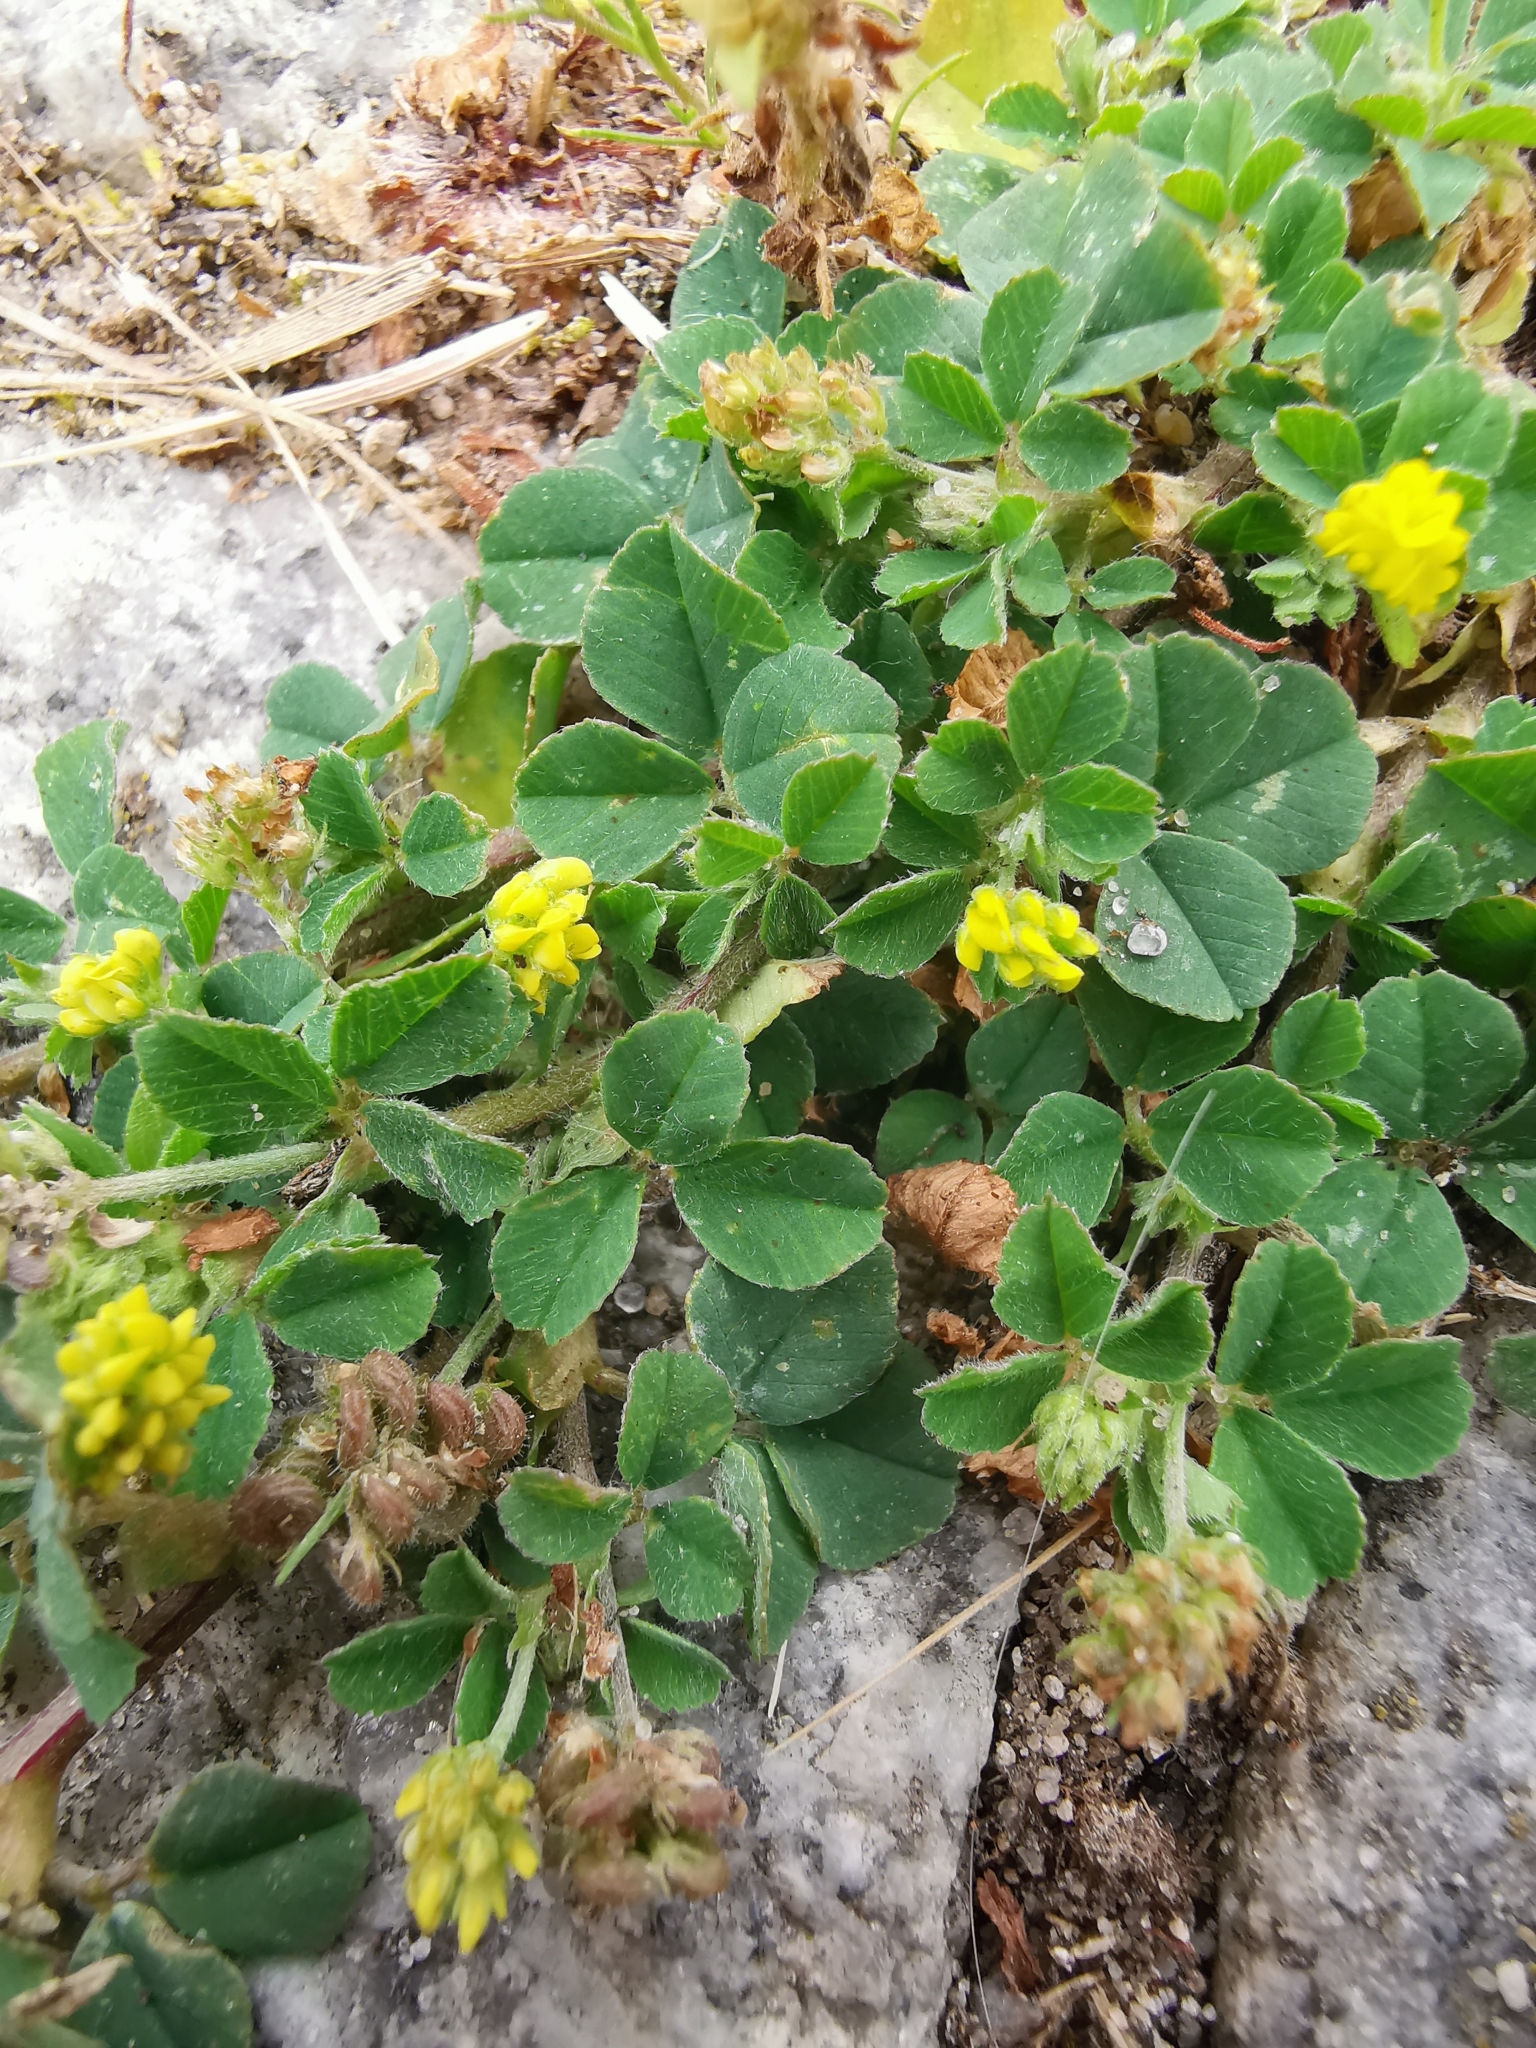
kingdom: Plantae
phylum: Tracheophyta
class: Magnoliopsida
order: Fabales
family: Fabaceae
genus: Medicago
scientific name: Medicago lupulina
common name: Black medick
